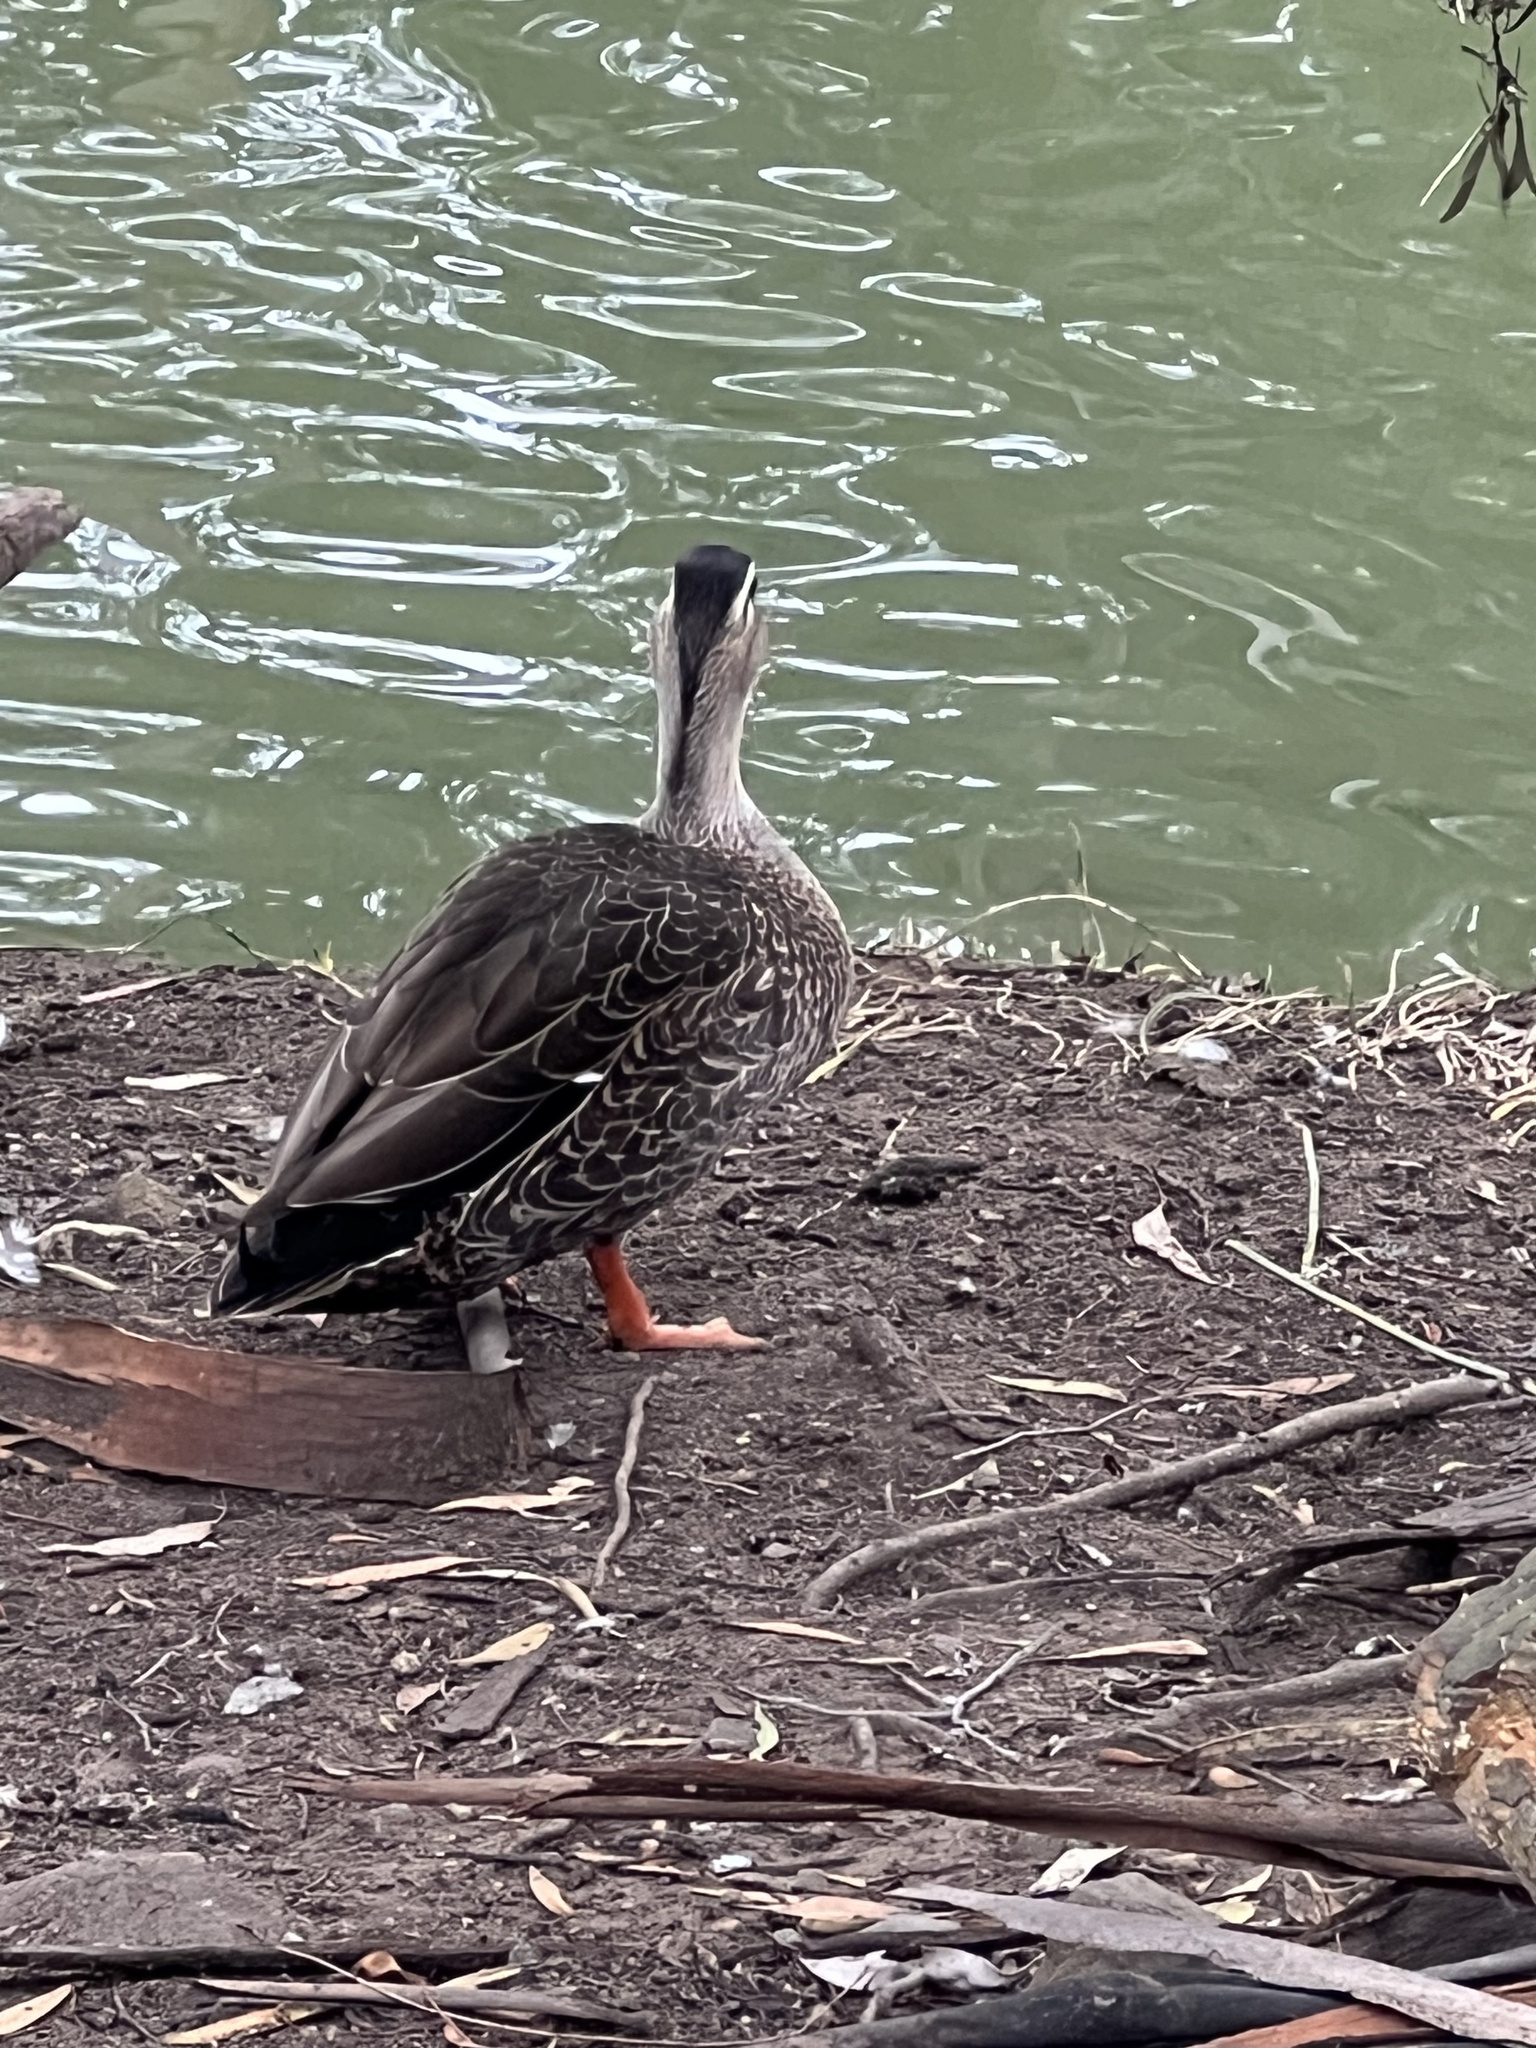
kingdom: Animalia
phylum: Chordata
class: Aves
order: Anseriformes
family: Anatidae
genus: Anas
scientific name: Anas
